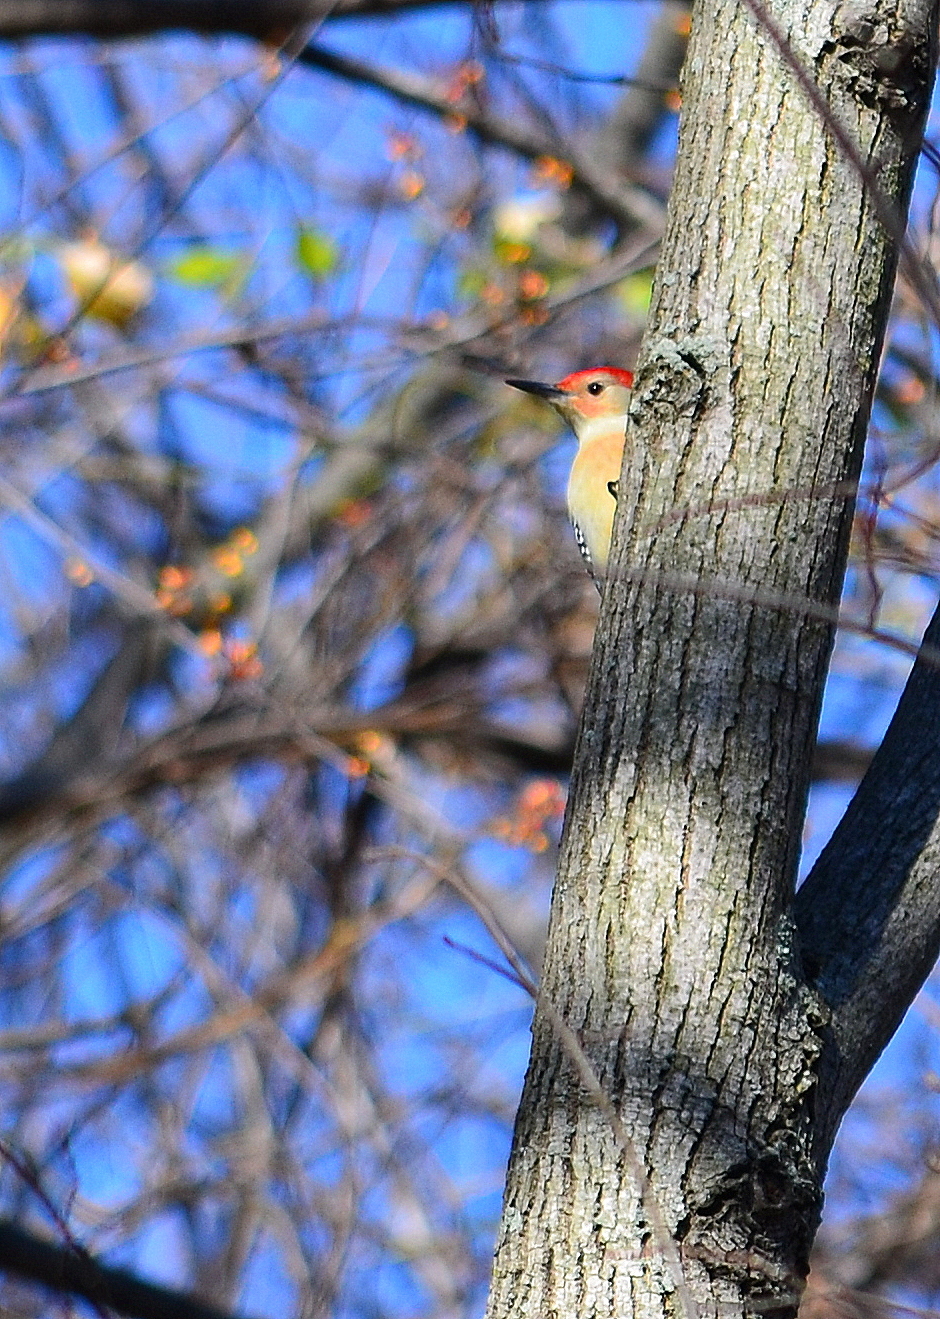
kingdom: Animalia
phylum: Chordata
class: Aves
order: Piciformes
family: Picidae
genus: Melanerpes
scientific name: Melanerpes carolinus
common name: Red-bellied woodpecker
